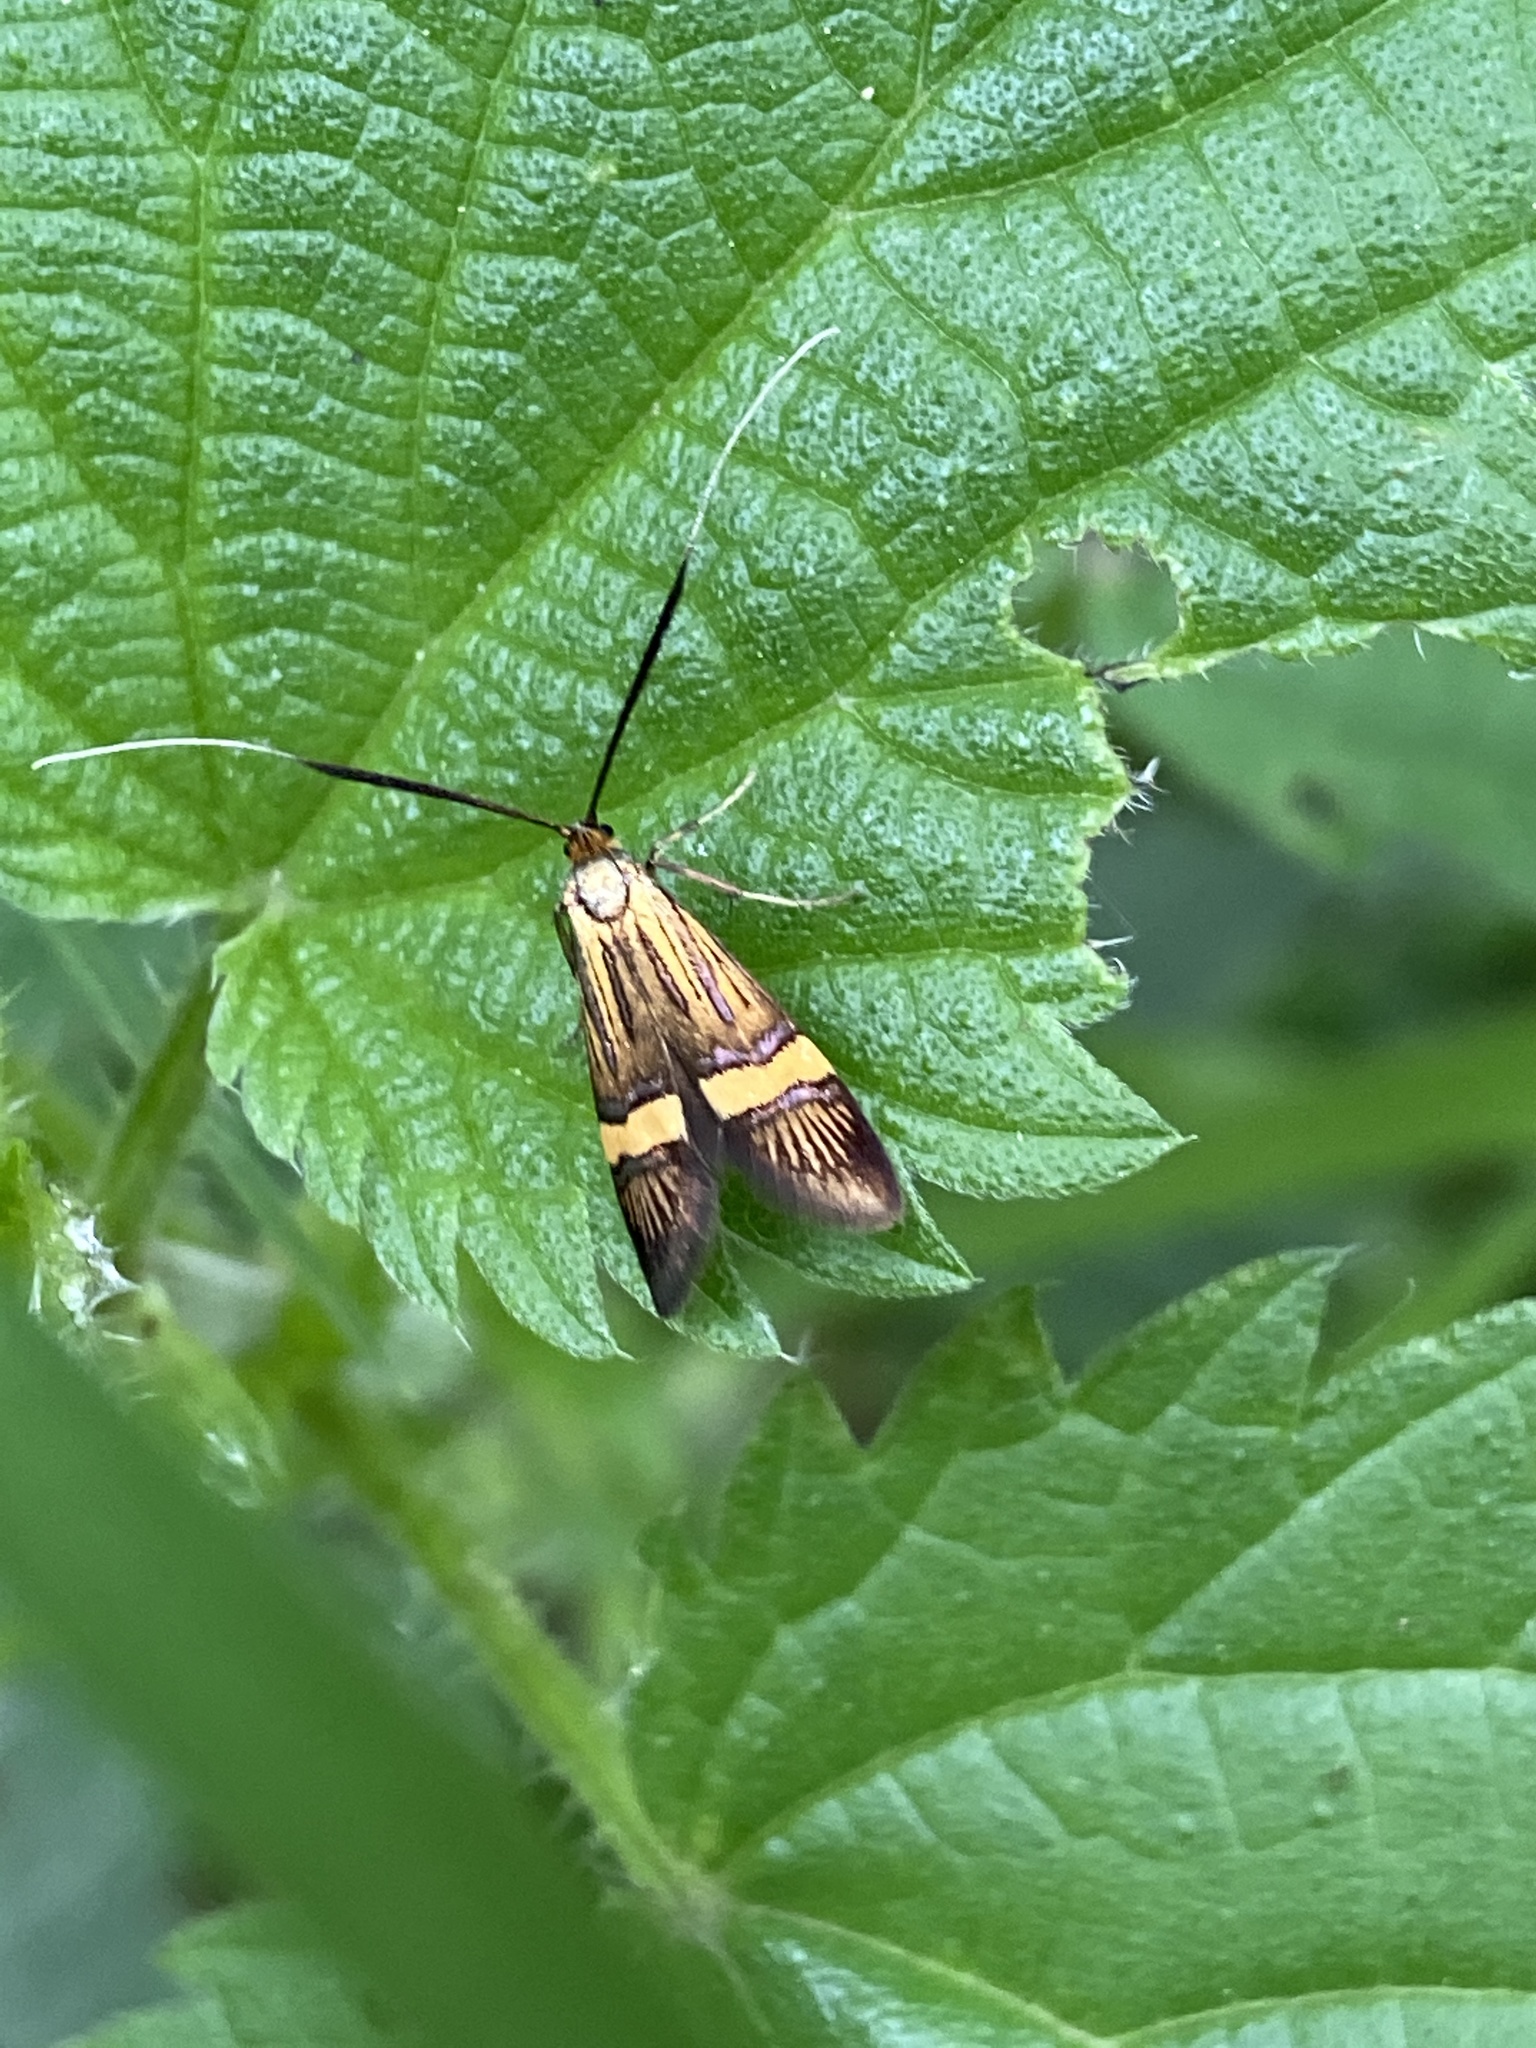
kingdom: Animalia
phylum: Arthropoda
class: Insecta
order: Lepidoptera
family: Adelidae
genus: Nemophora
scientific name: Nemophora degeerella
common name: Yellow-barred long-horn
